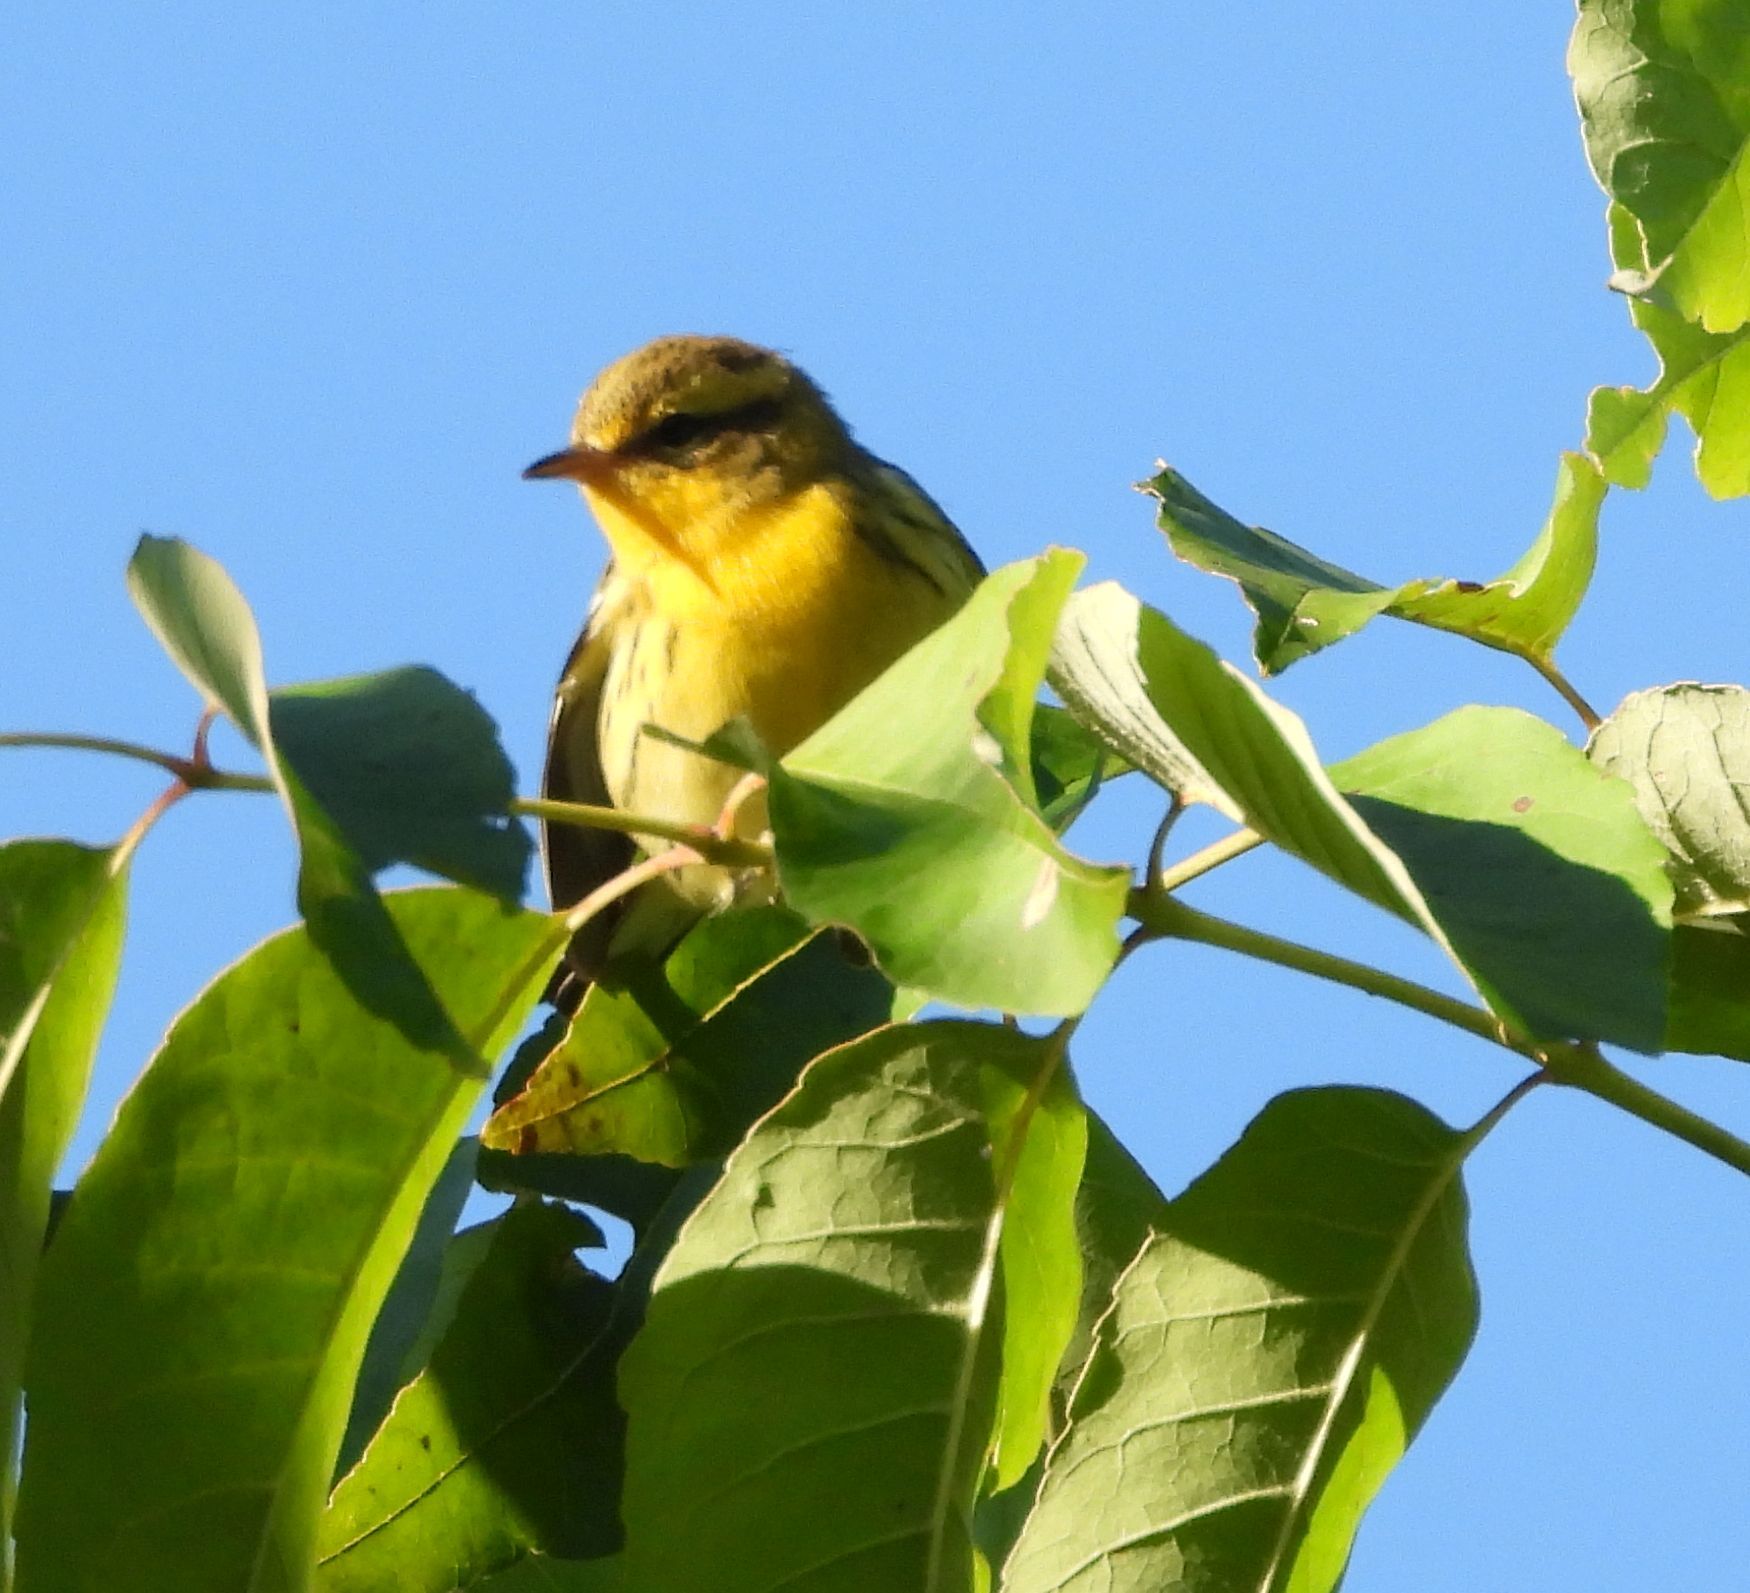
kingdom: Animalia
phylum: Chordata
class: Aves
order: Passeriformes
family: Parulidae
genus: Setophaga
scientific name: Setophaga fusca
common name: Blackburnian warbler
